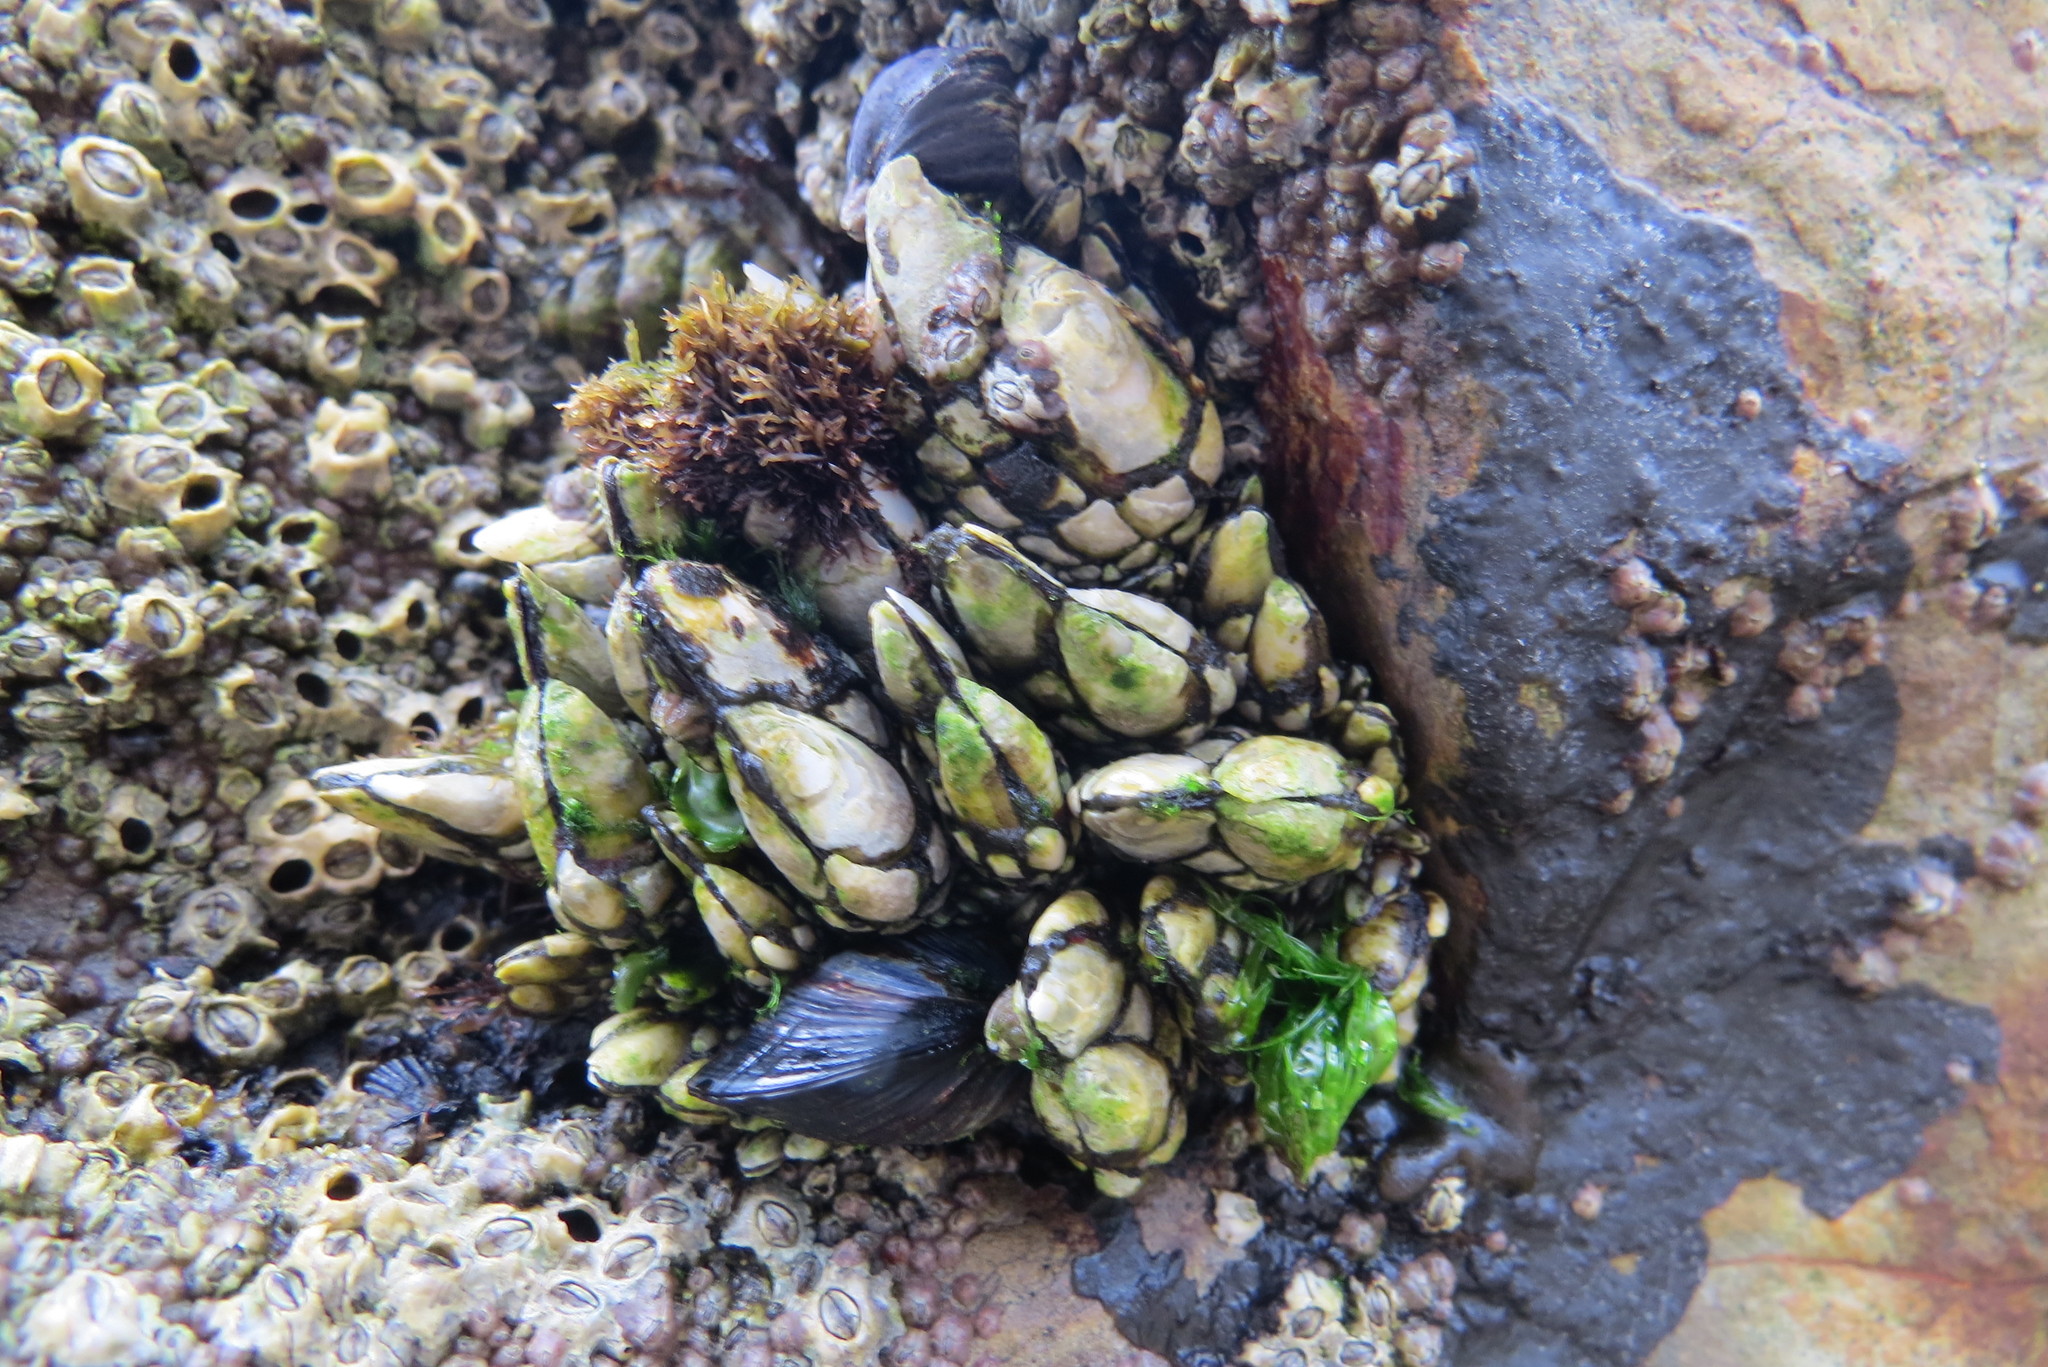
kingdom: Animalia
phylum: Arthropoda
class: Maxillopoda
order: Pedunculata
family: Pollicipedidae
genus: Pollicipes
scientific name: Pollicipes polymerus
